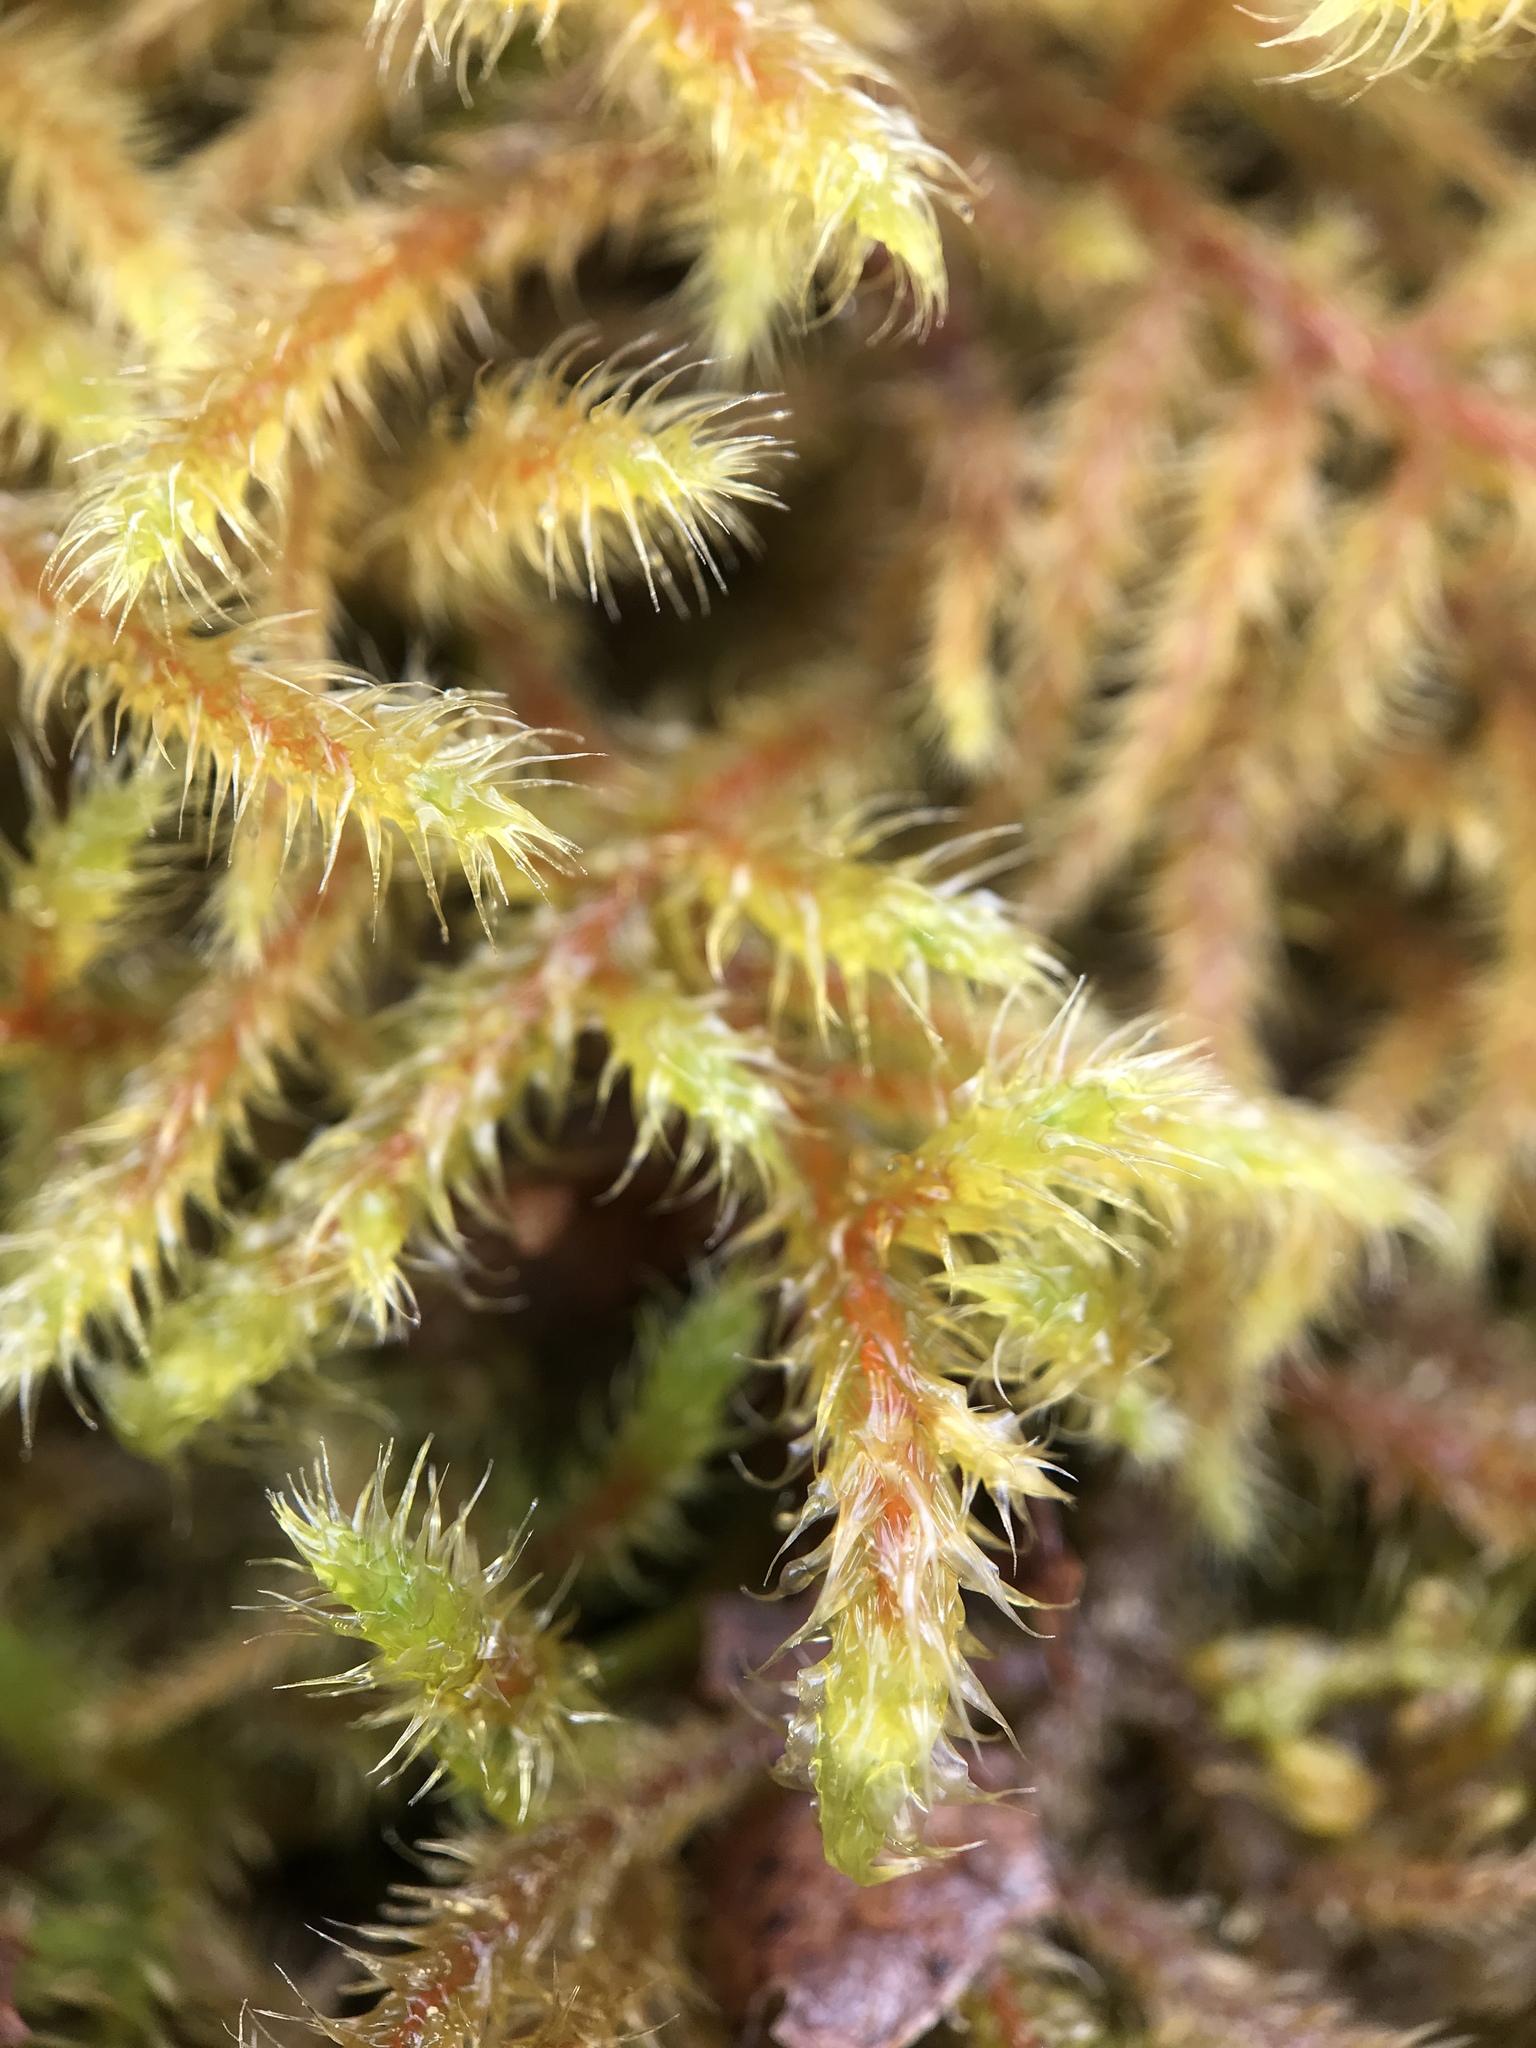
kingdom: Plantae
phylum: Bryophyta
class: Bryopsida
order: Hypnales
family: Hylocomiaceae
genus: Rhytidiadelphus
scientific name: Rhytidiadelphus loreus
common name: Lanky moss
